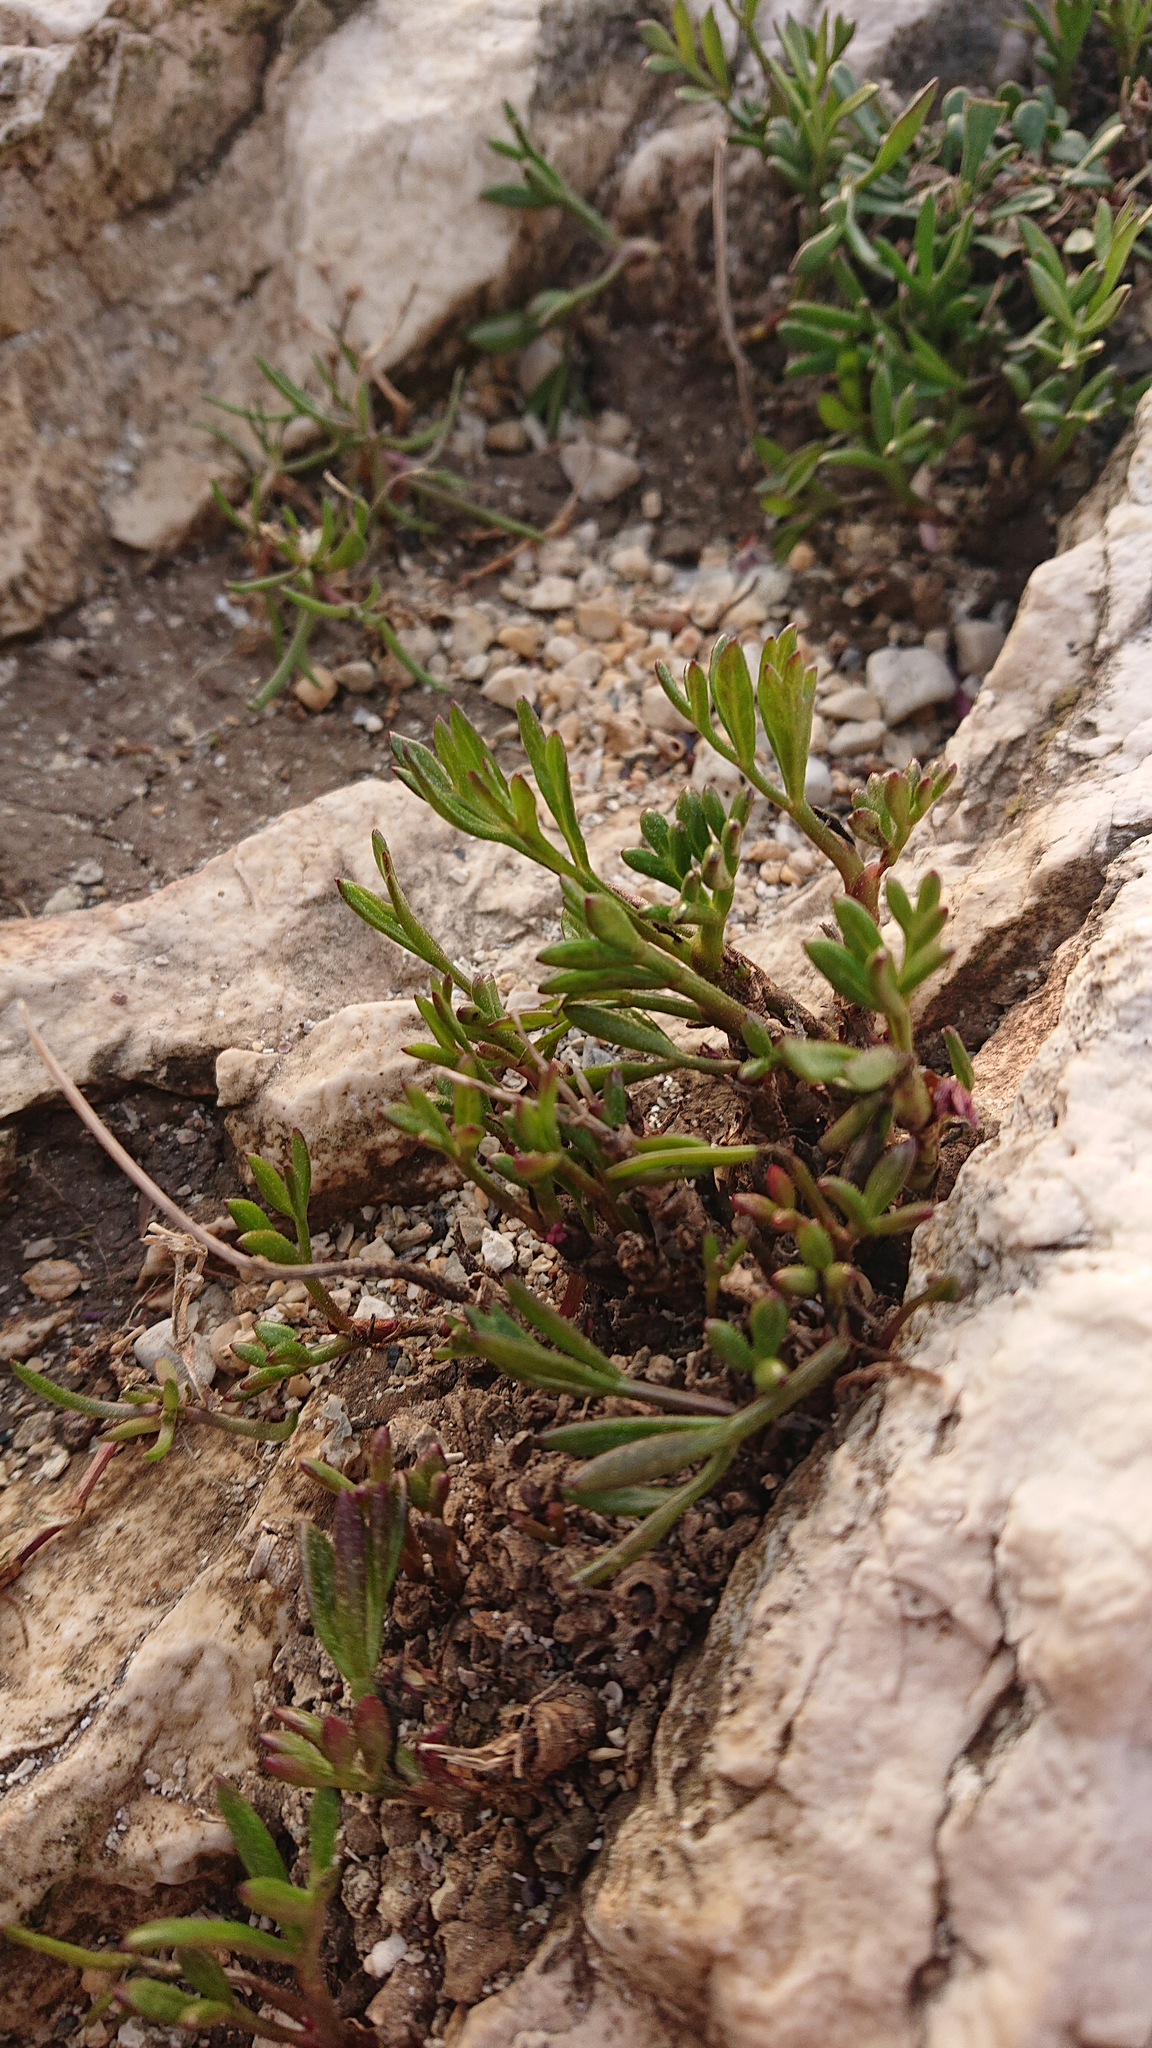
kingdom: Plantae
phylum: Tracheophyta
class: Magnoliopsida
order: Apiales
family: Apiaceae
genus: Crithmum
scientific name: Crithmum maritimum
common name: Rock samphire
